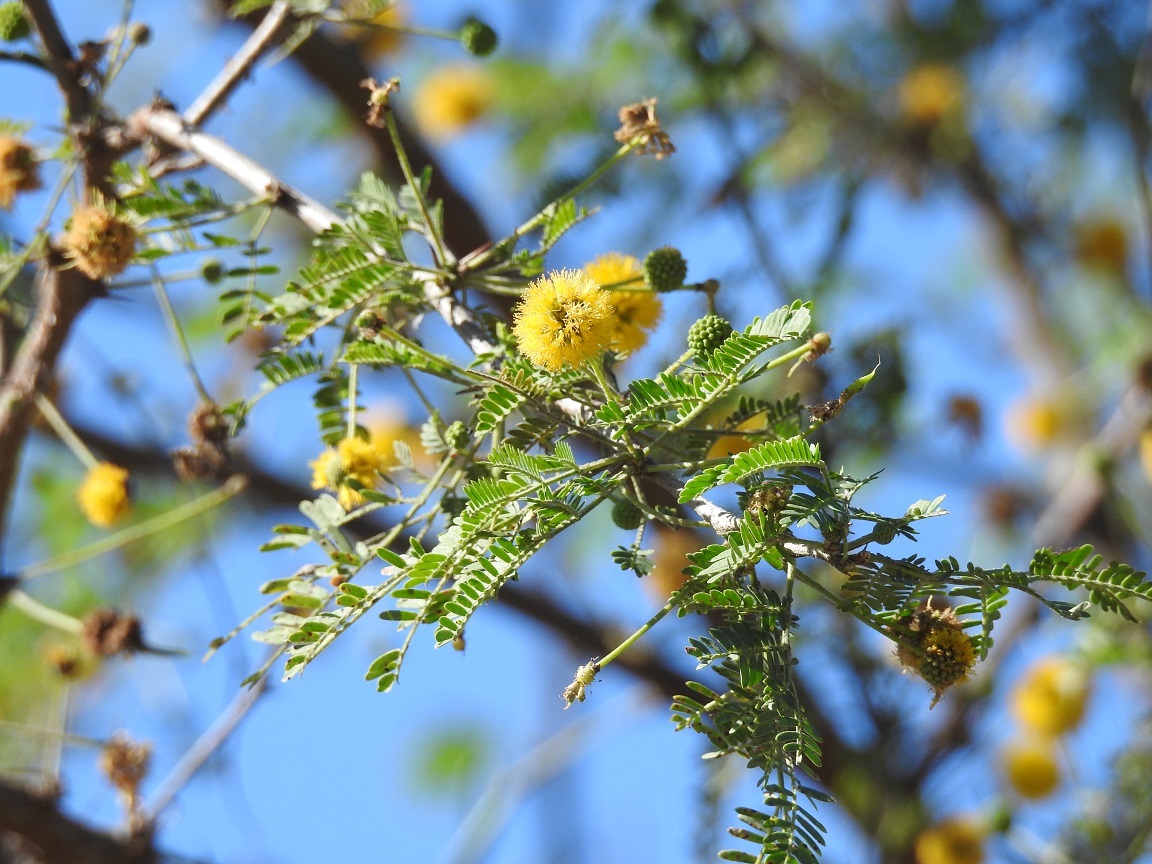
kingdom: Plantae
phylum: Tracheophyta
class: Magnoliopsida
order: Fabales
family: Fabaceae
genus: Vachellia
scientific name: Vachellia farnesiana
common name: Sweet acacia
